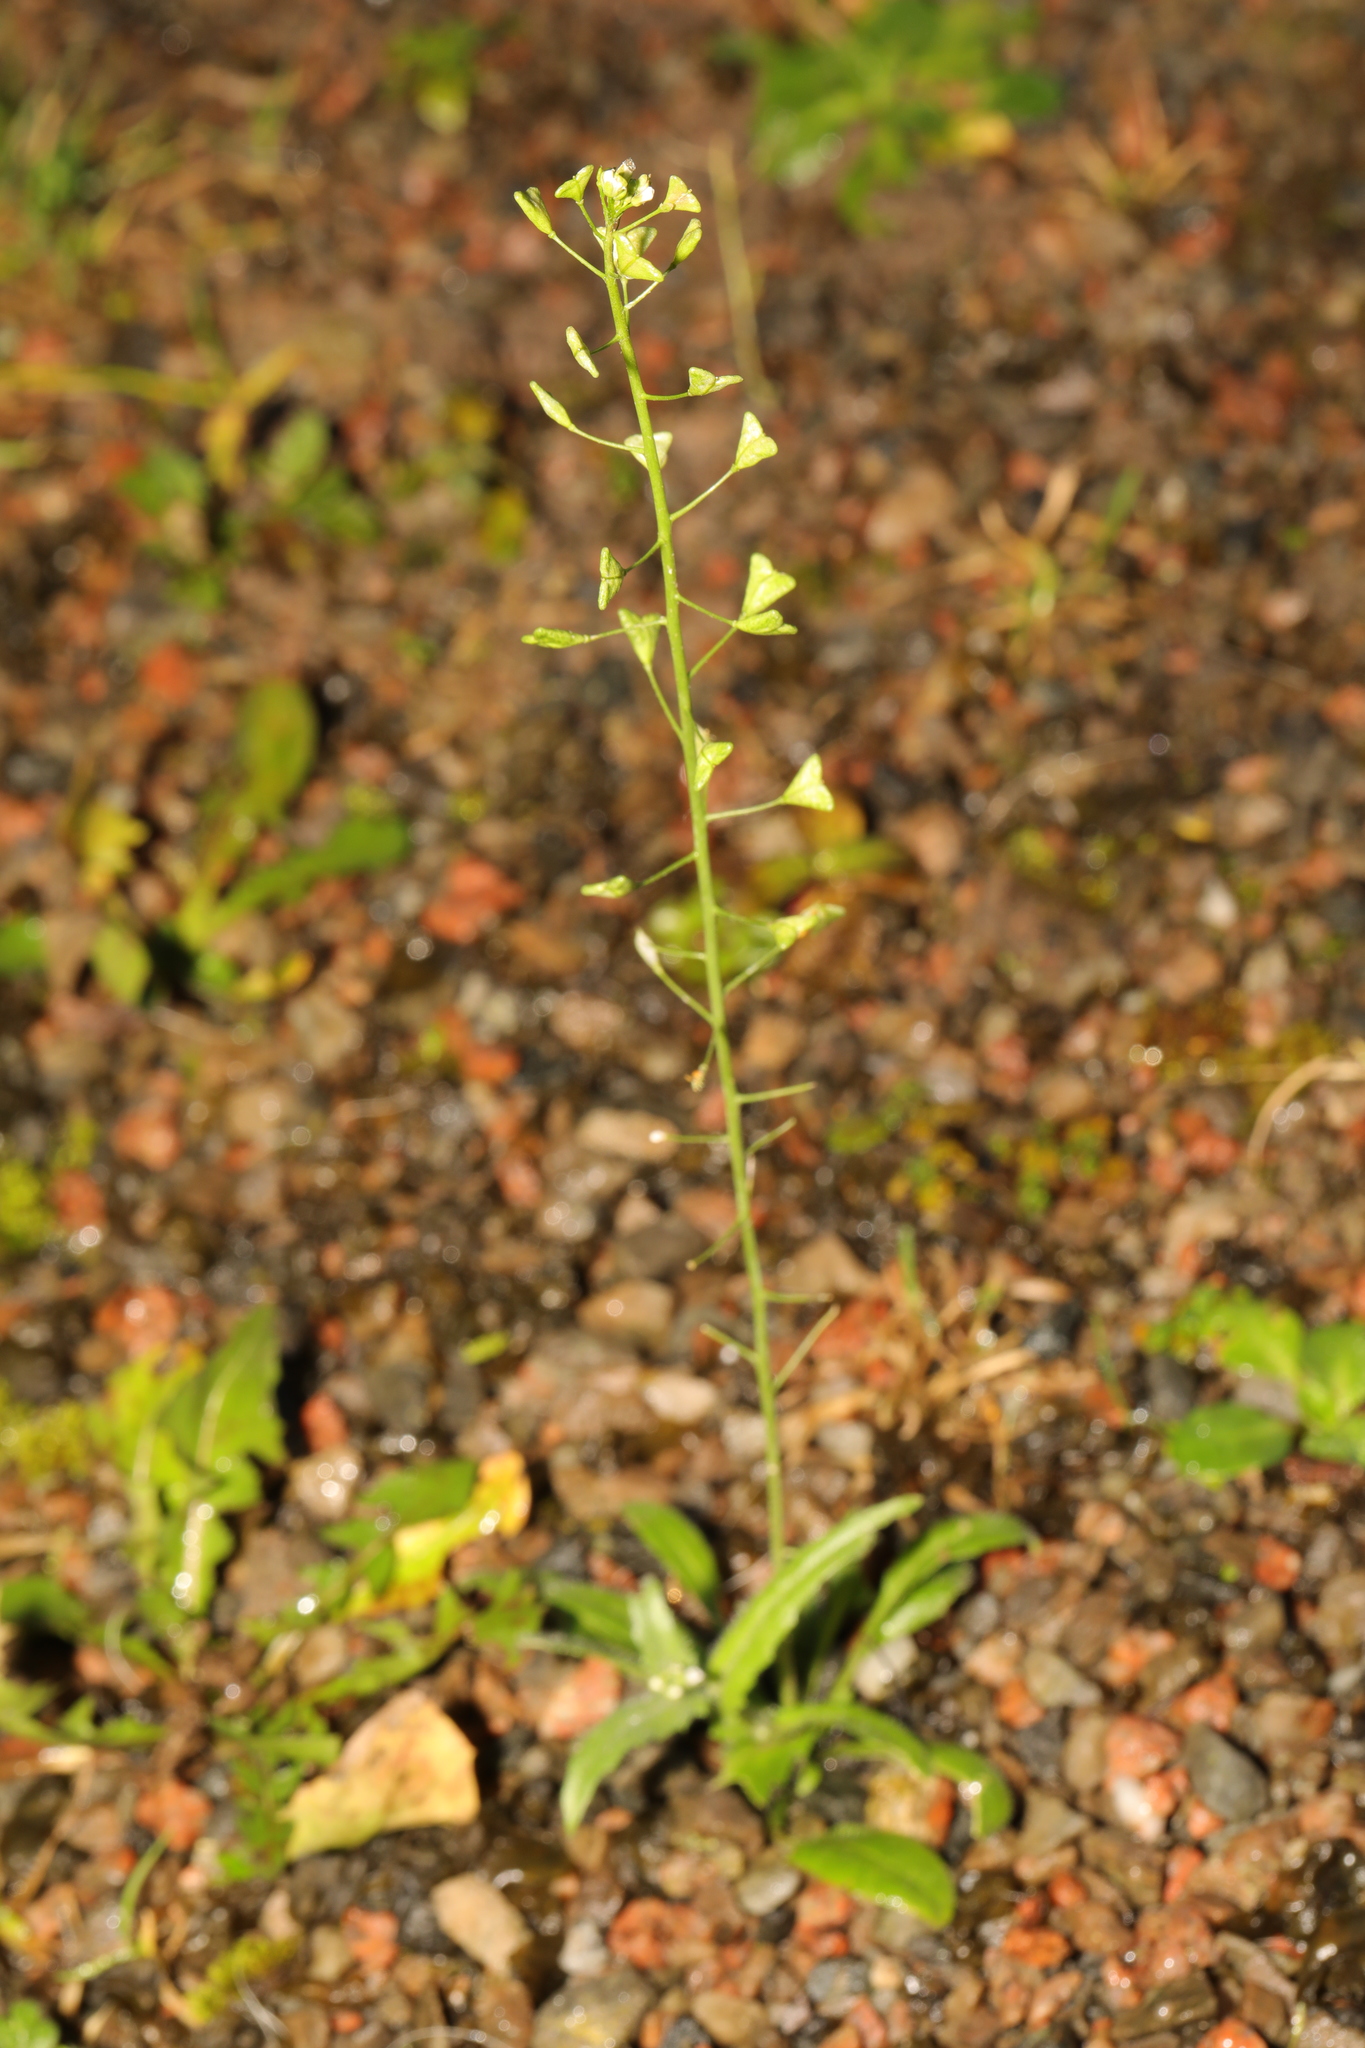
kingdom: Plantae
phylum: Tracheophyta
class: Magnoliopsida
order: Brassicales
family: Brassicaceae
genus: Capsella
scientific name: Capsella bursa-pastoris
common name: Shepherd's purse
